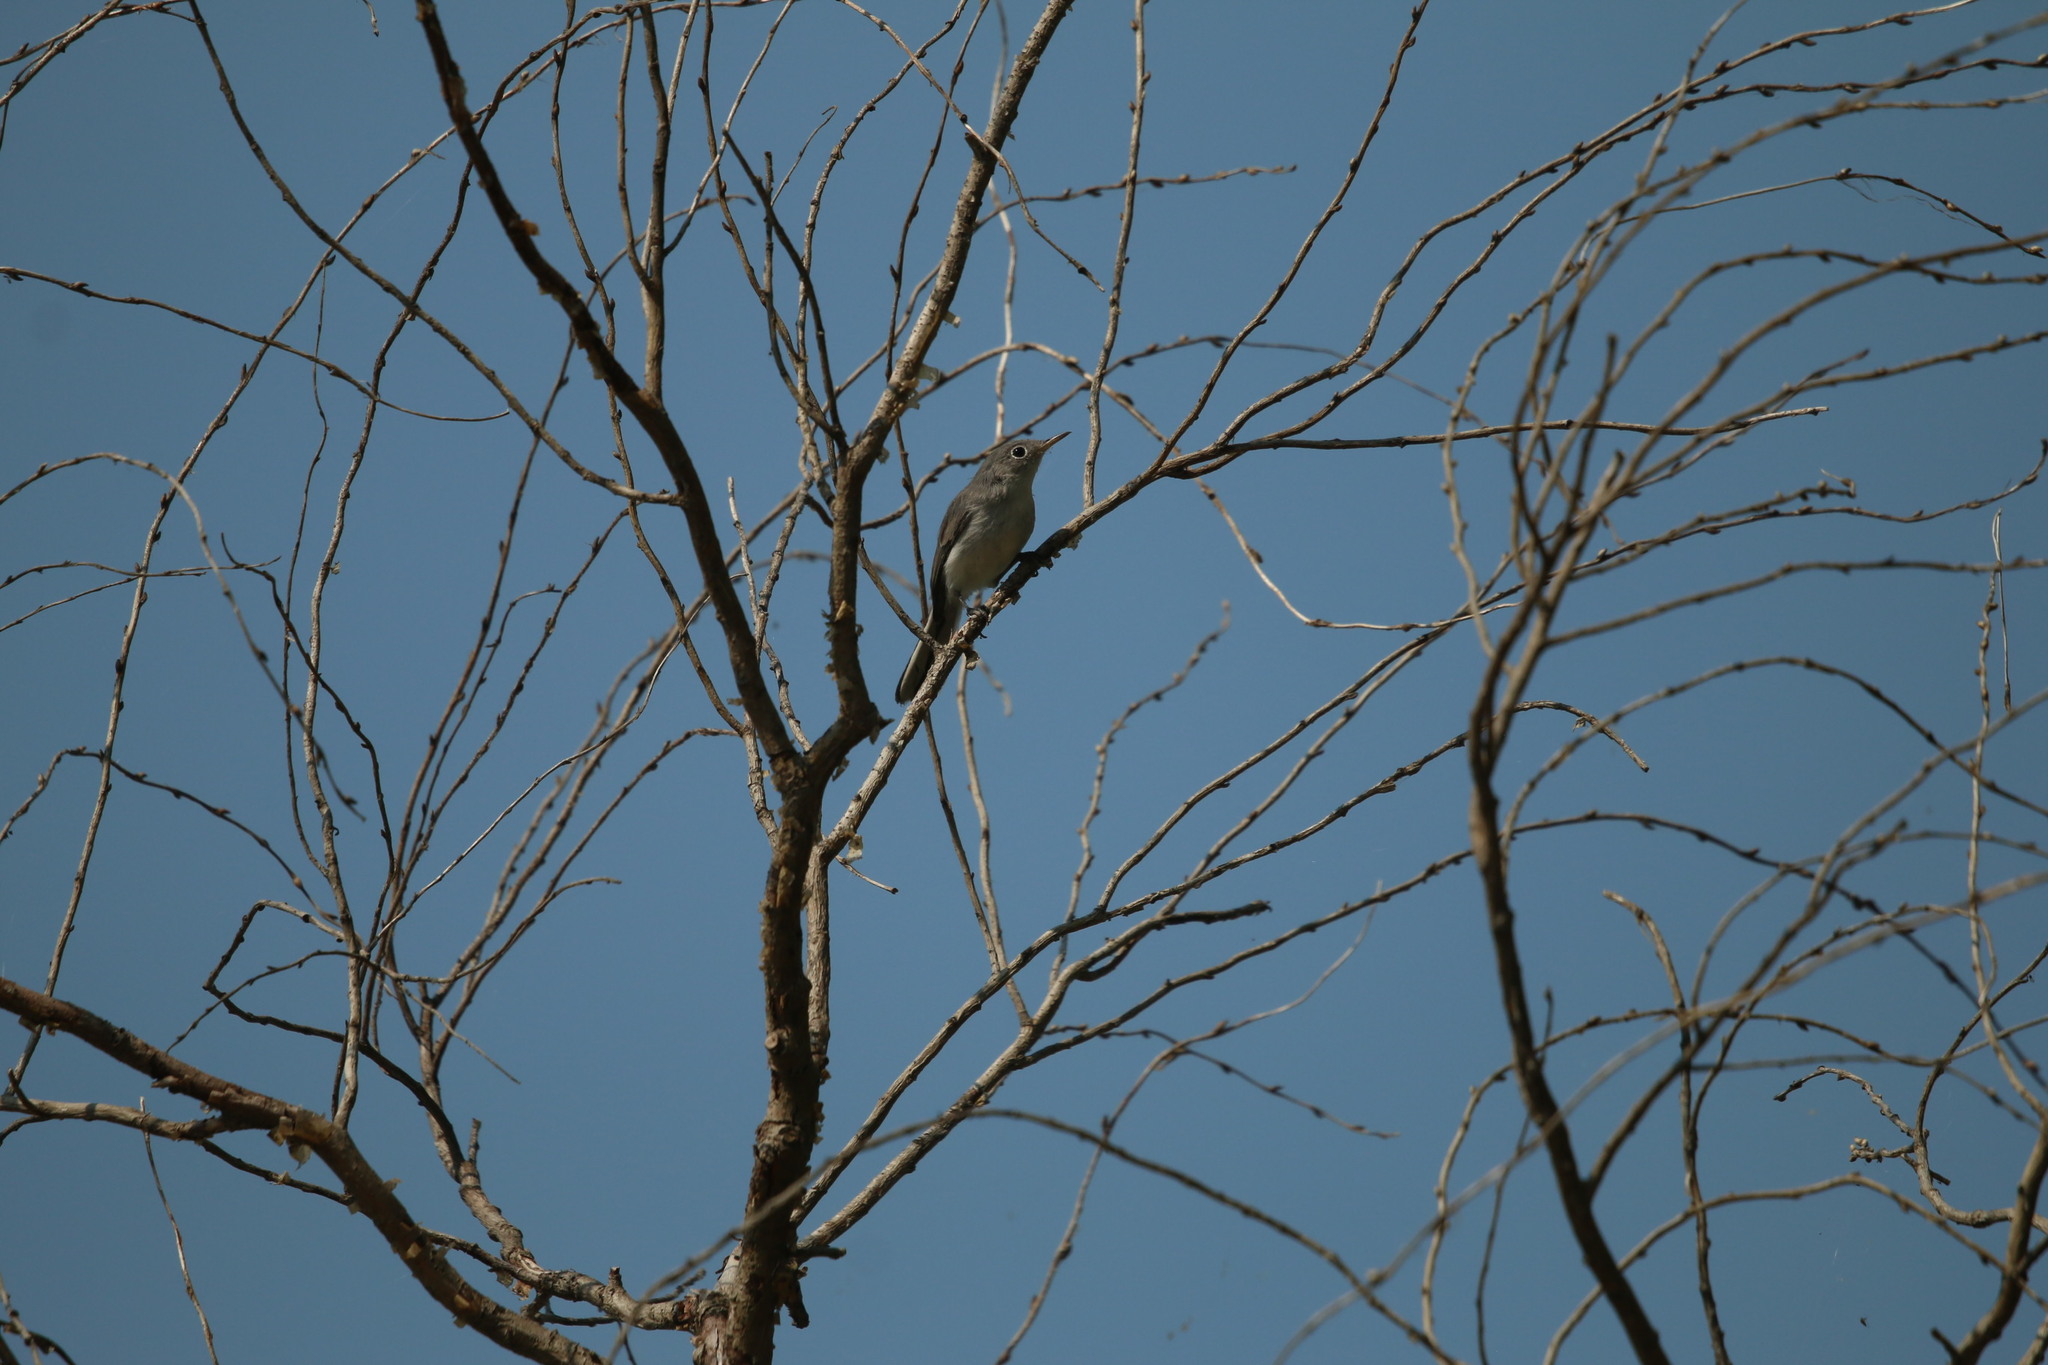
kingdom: Animalia
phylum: Chordata
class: Aves
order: Passeriformes
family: Polioptilidae
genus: Polioptila
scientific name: Polioptila caerulea
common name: Blue-gray gnatcatcher
